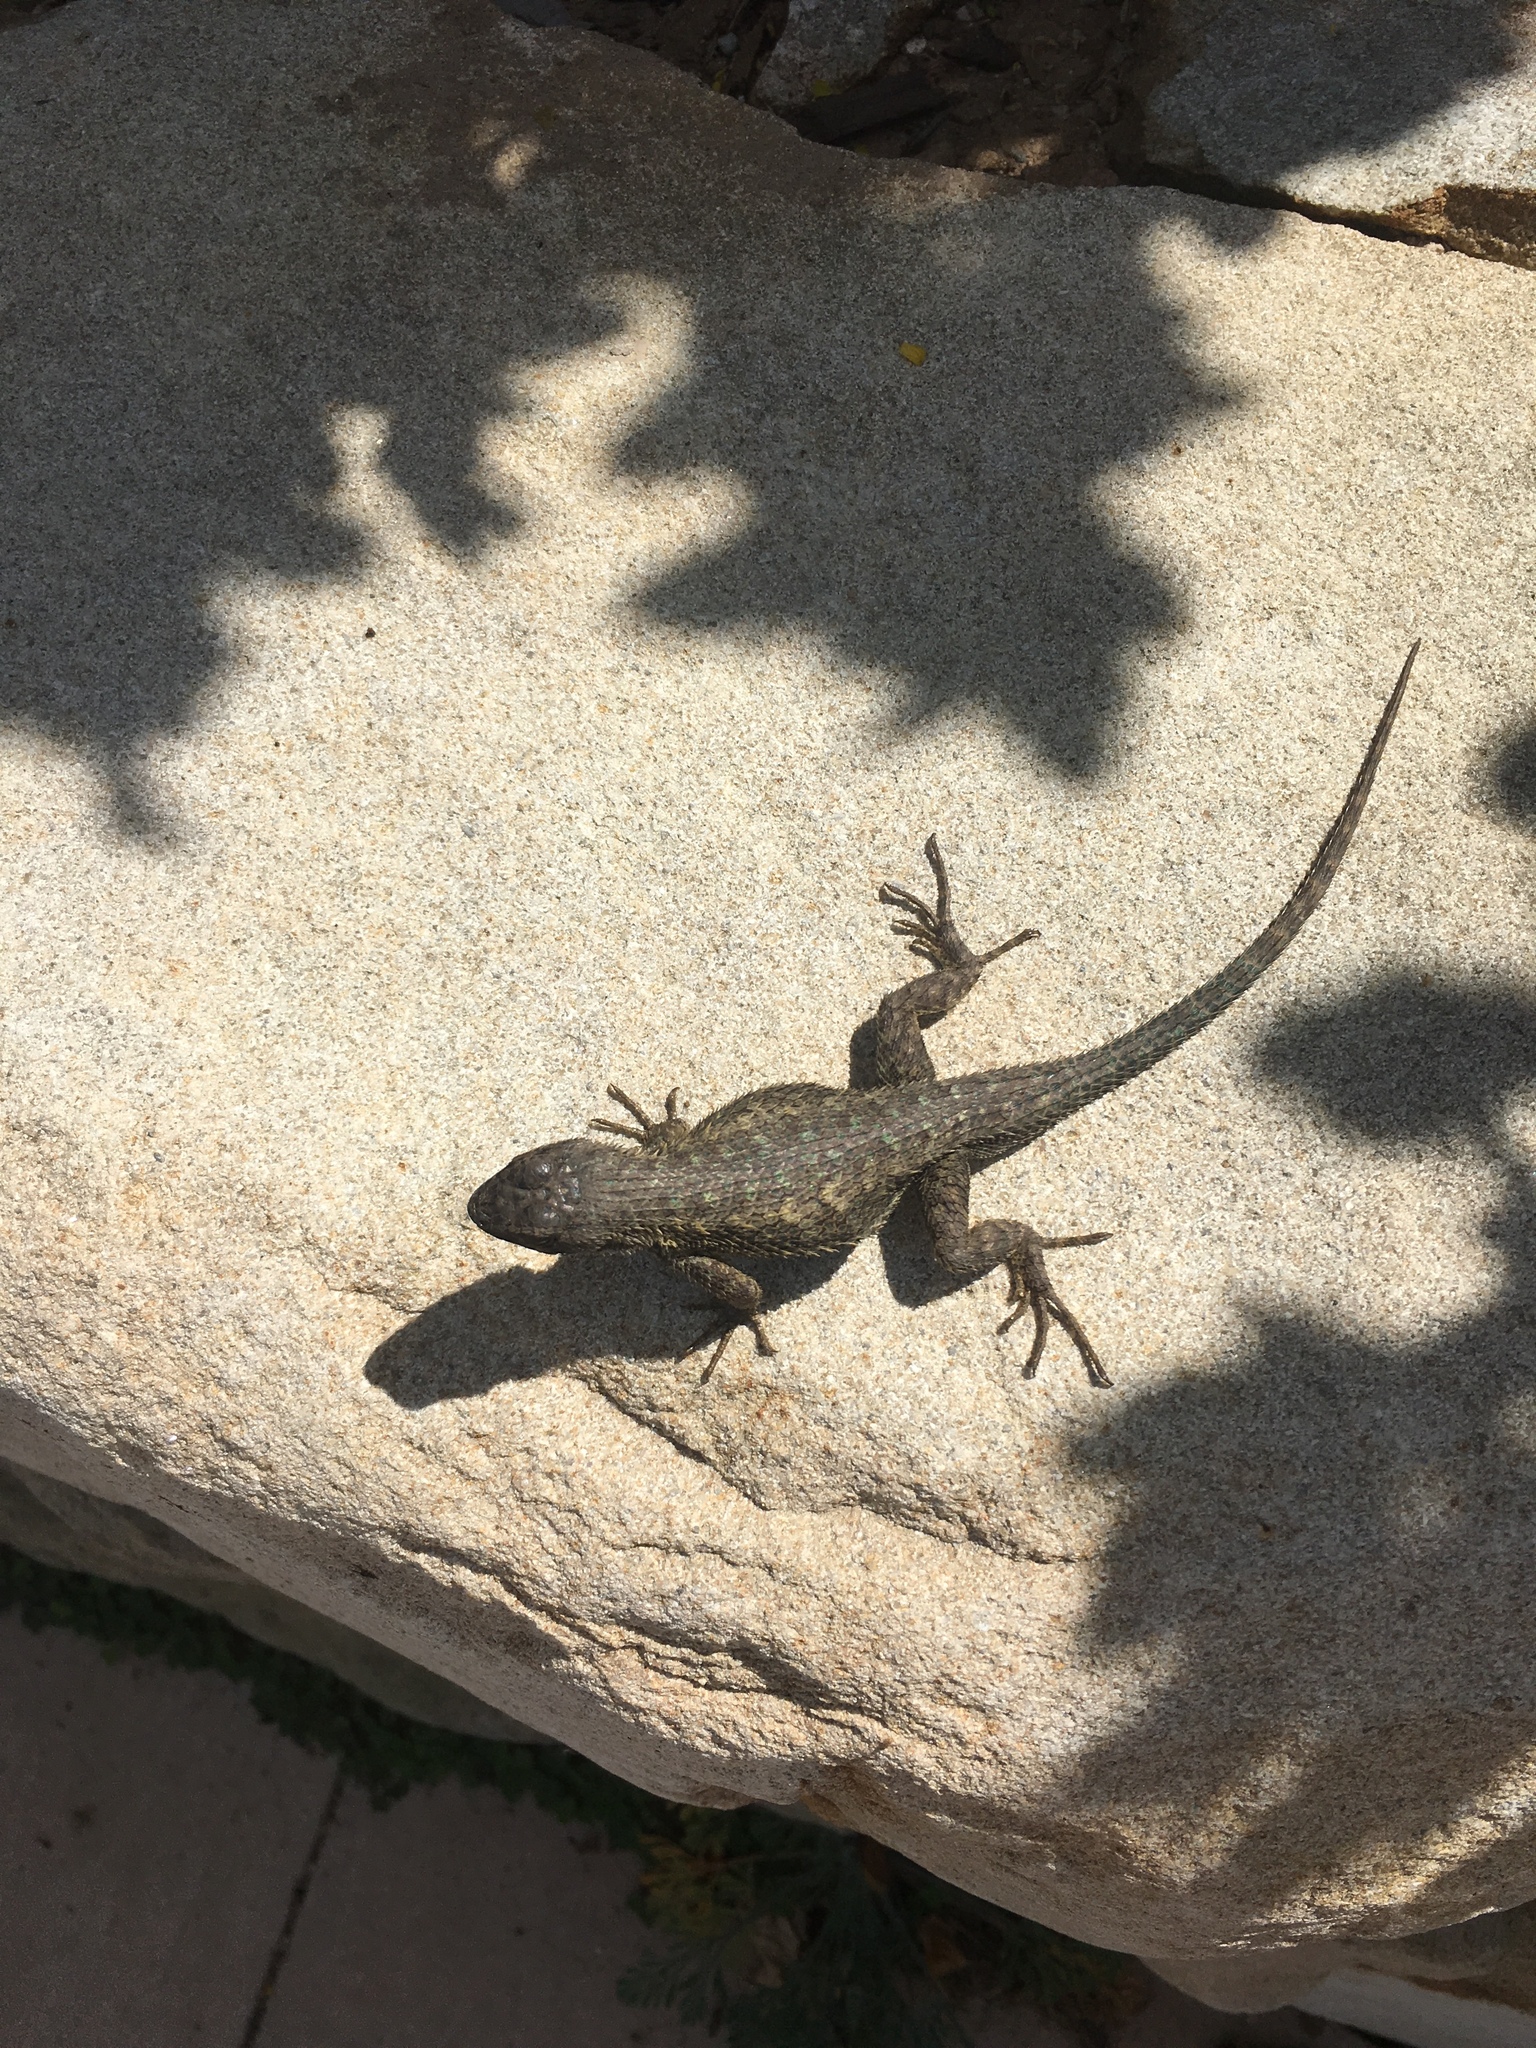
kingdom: Animalia
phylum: Chordata
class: Squamata
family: Phrynosomatidae
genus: Sceloporus
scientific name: Sceloporus occidentalis
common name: Western fence lizard
